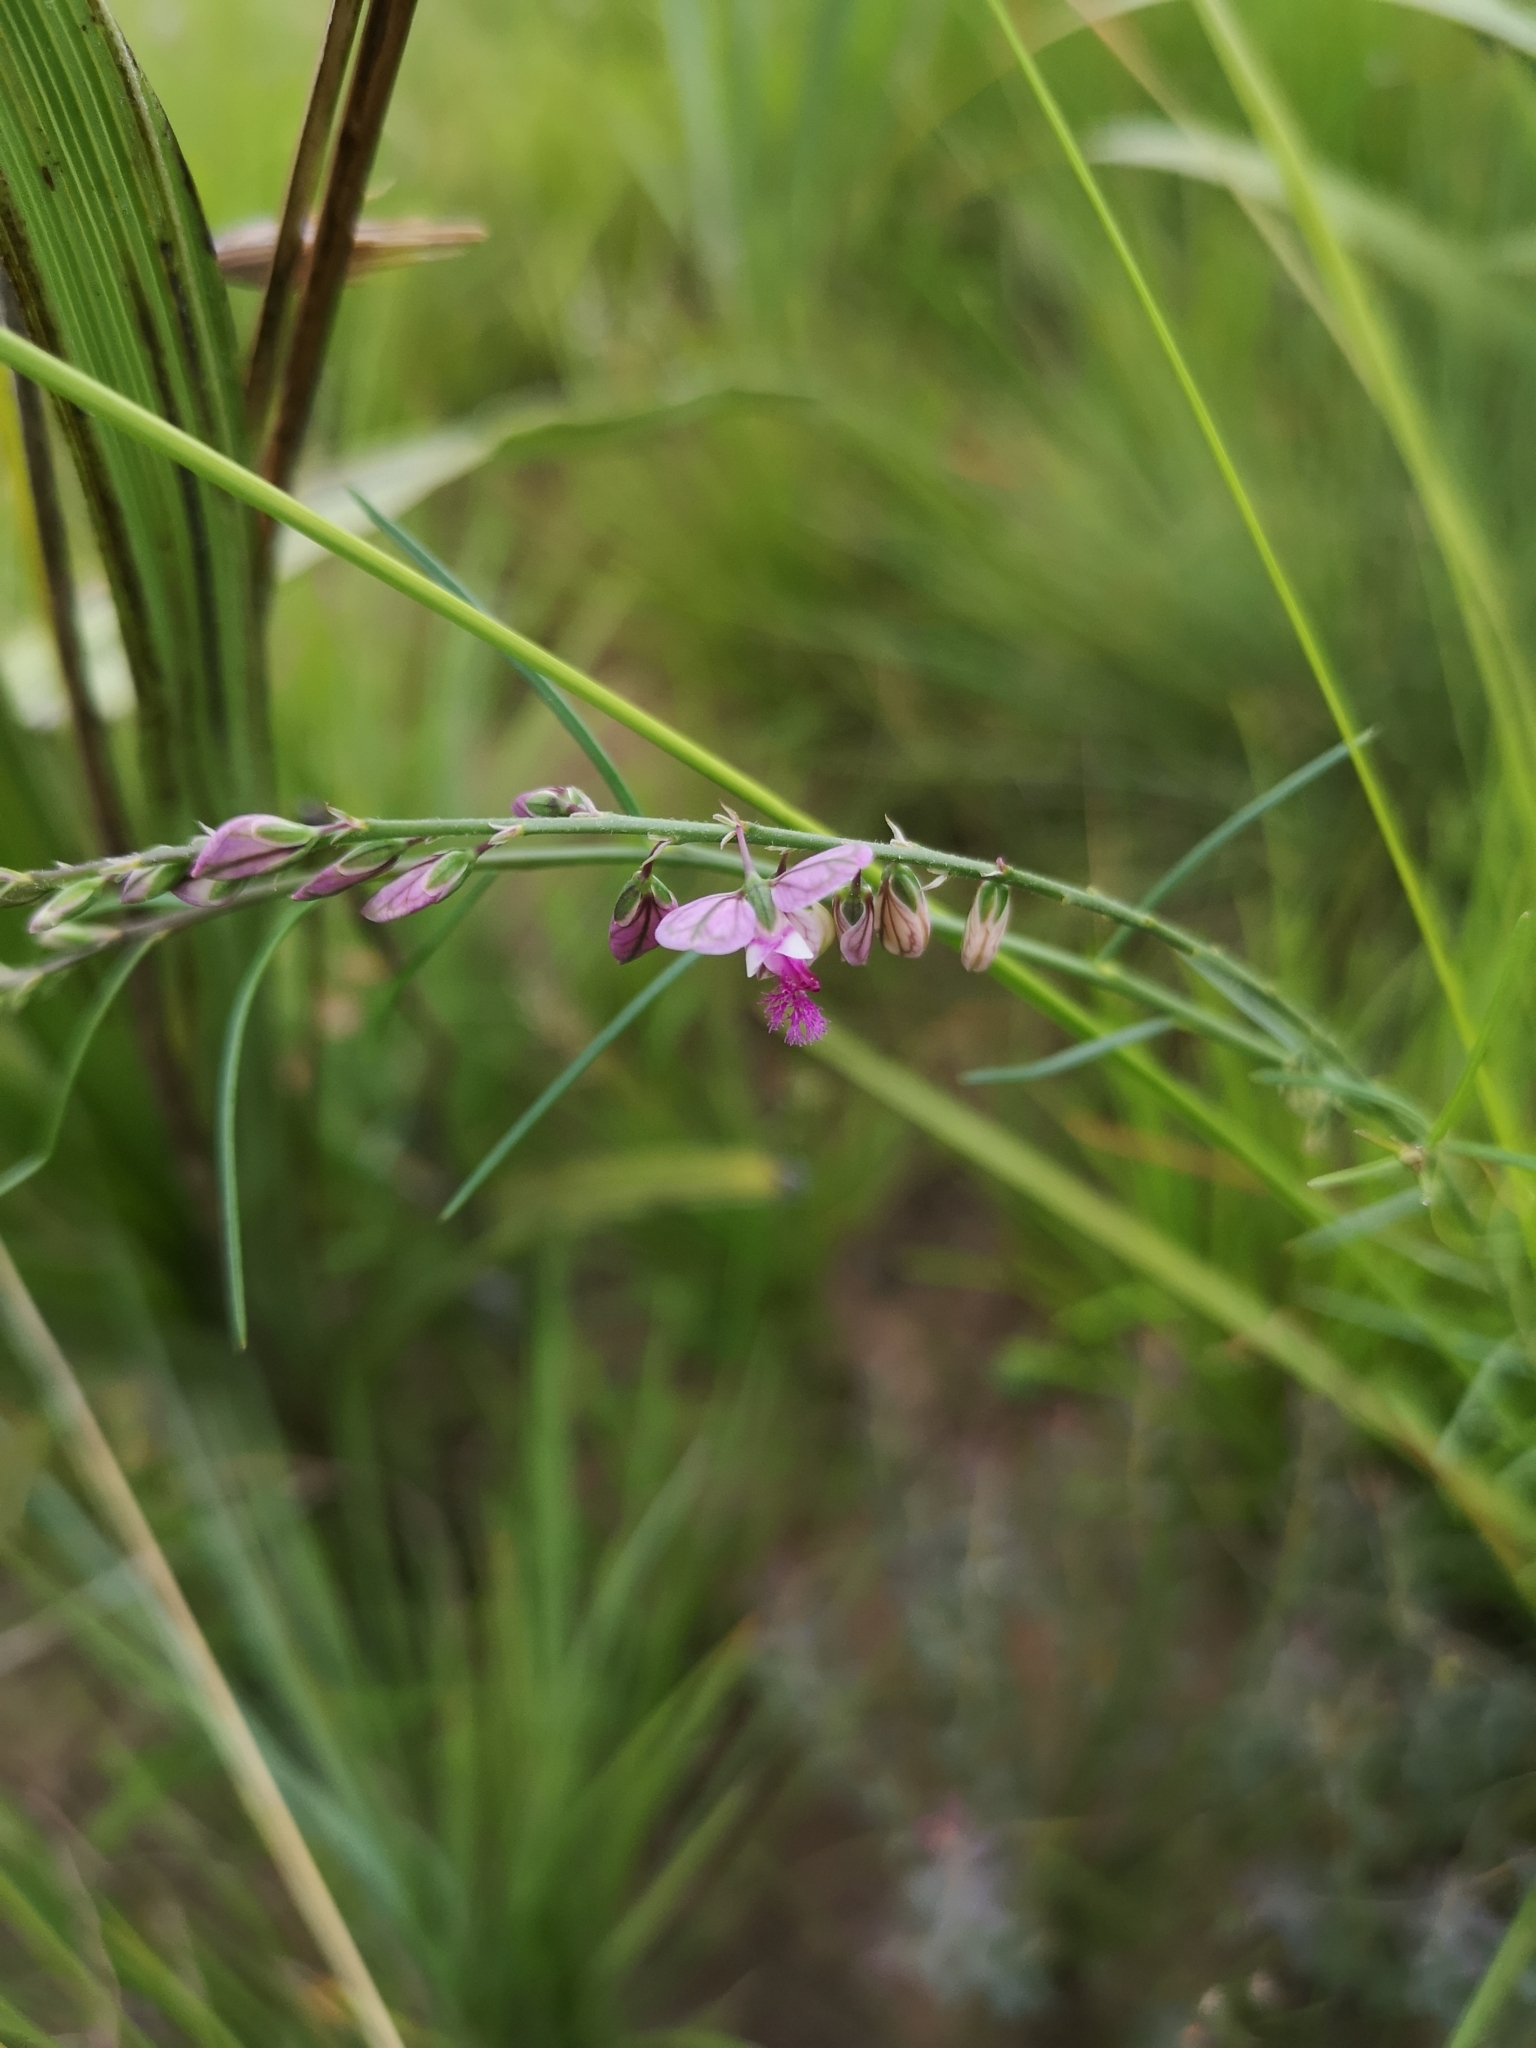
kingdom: Plantae
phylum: Tracheophyta
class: Magnoliopsida
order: Fabales
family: Polygalaceae
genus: Polygala
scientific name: Polygala hottentotta
